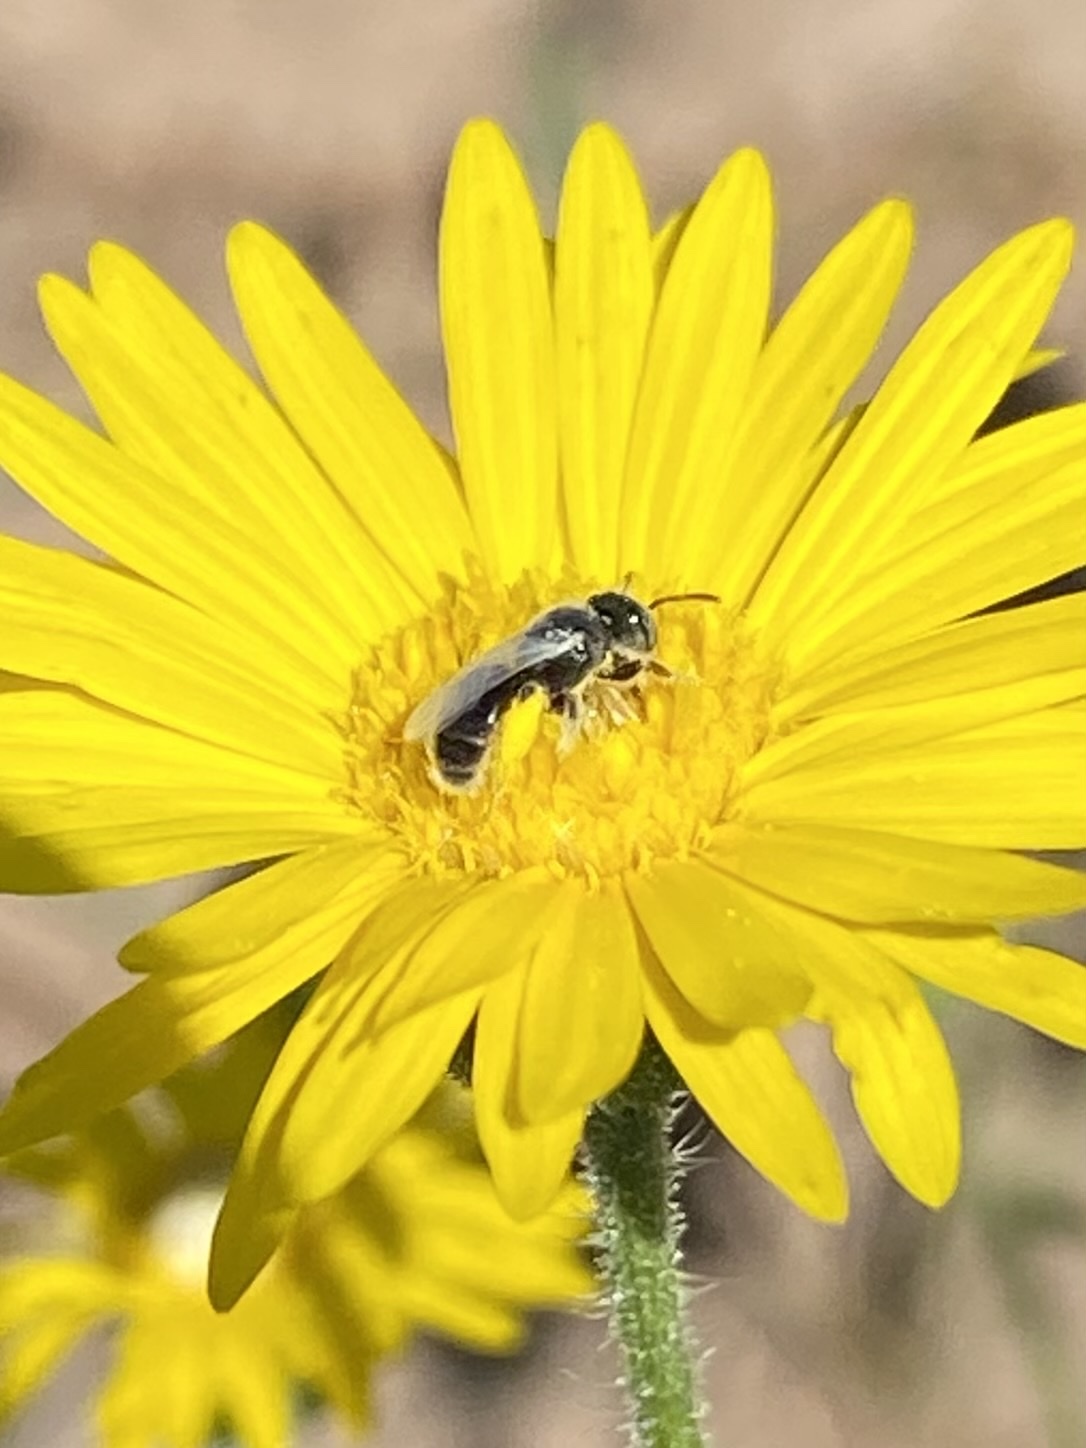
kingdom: Animalia
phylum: Arthropoda
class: Insecta
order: Hymenoptera
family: Andrenidae
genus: Perdita
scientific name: Perdita
